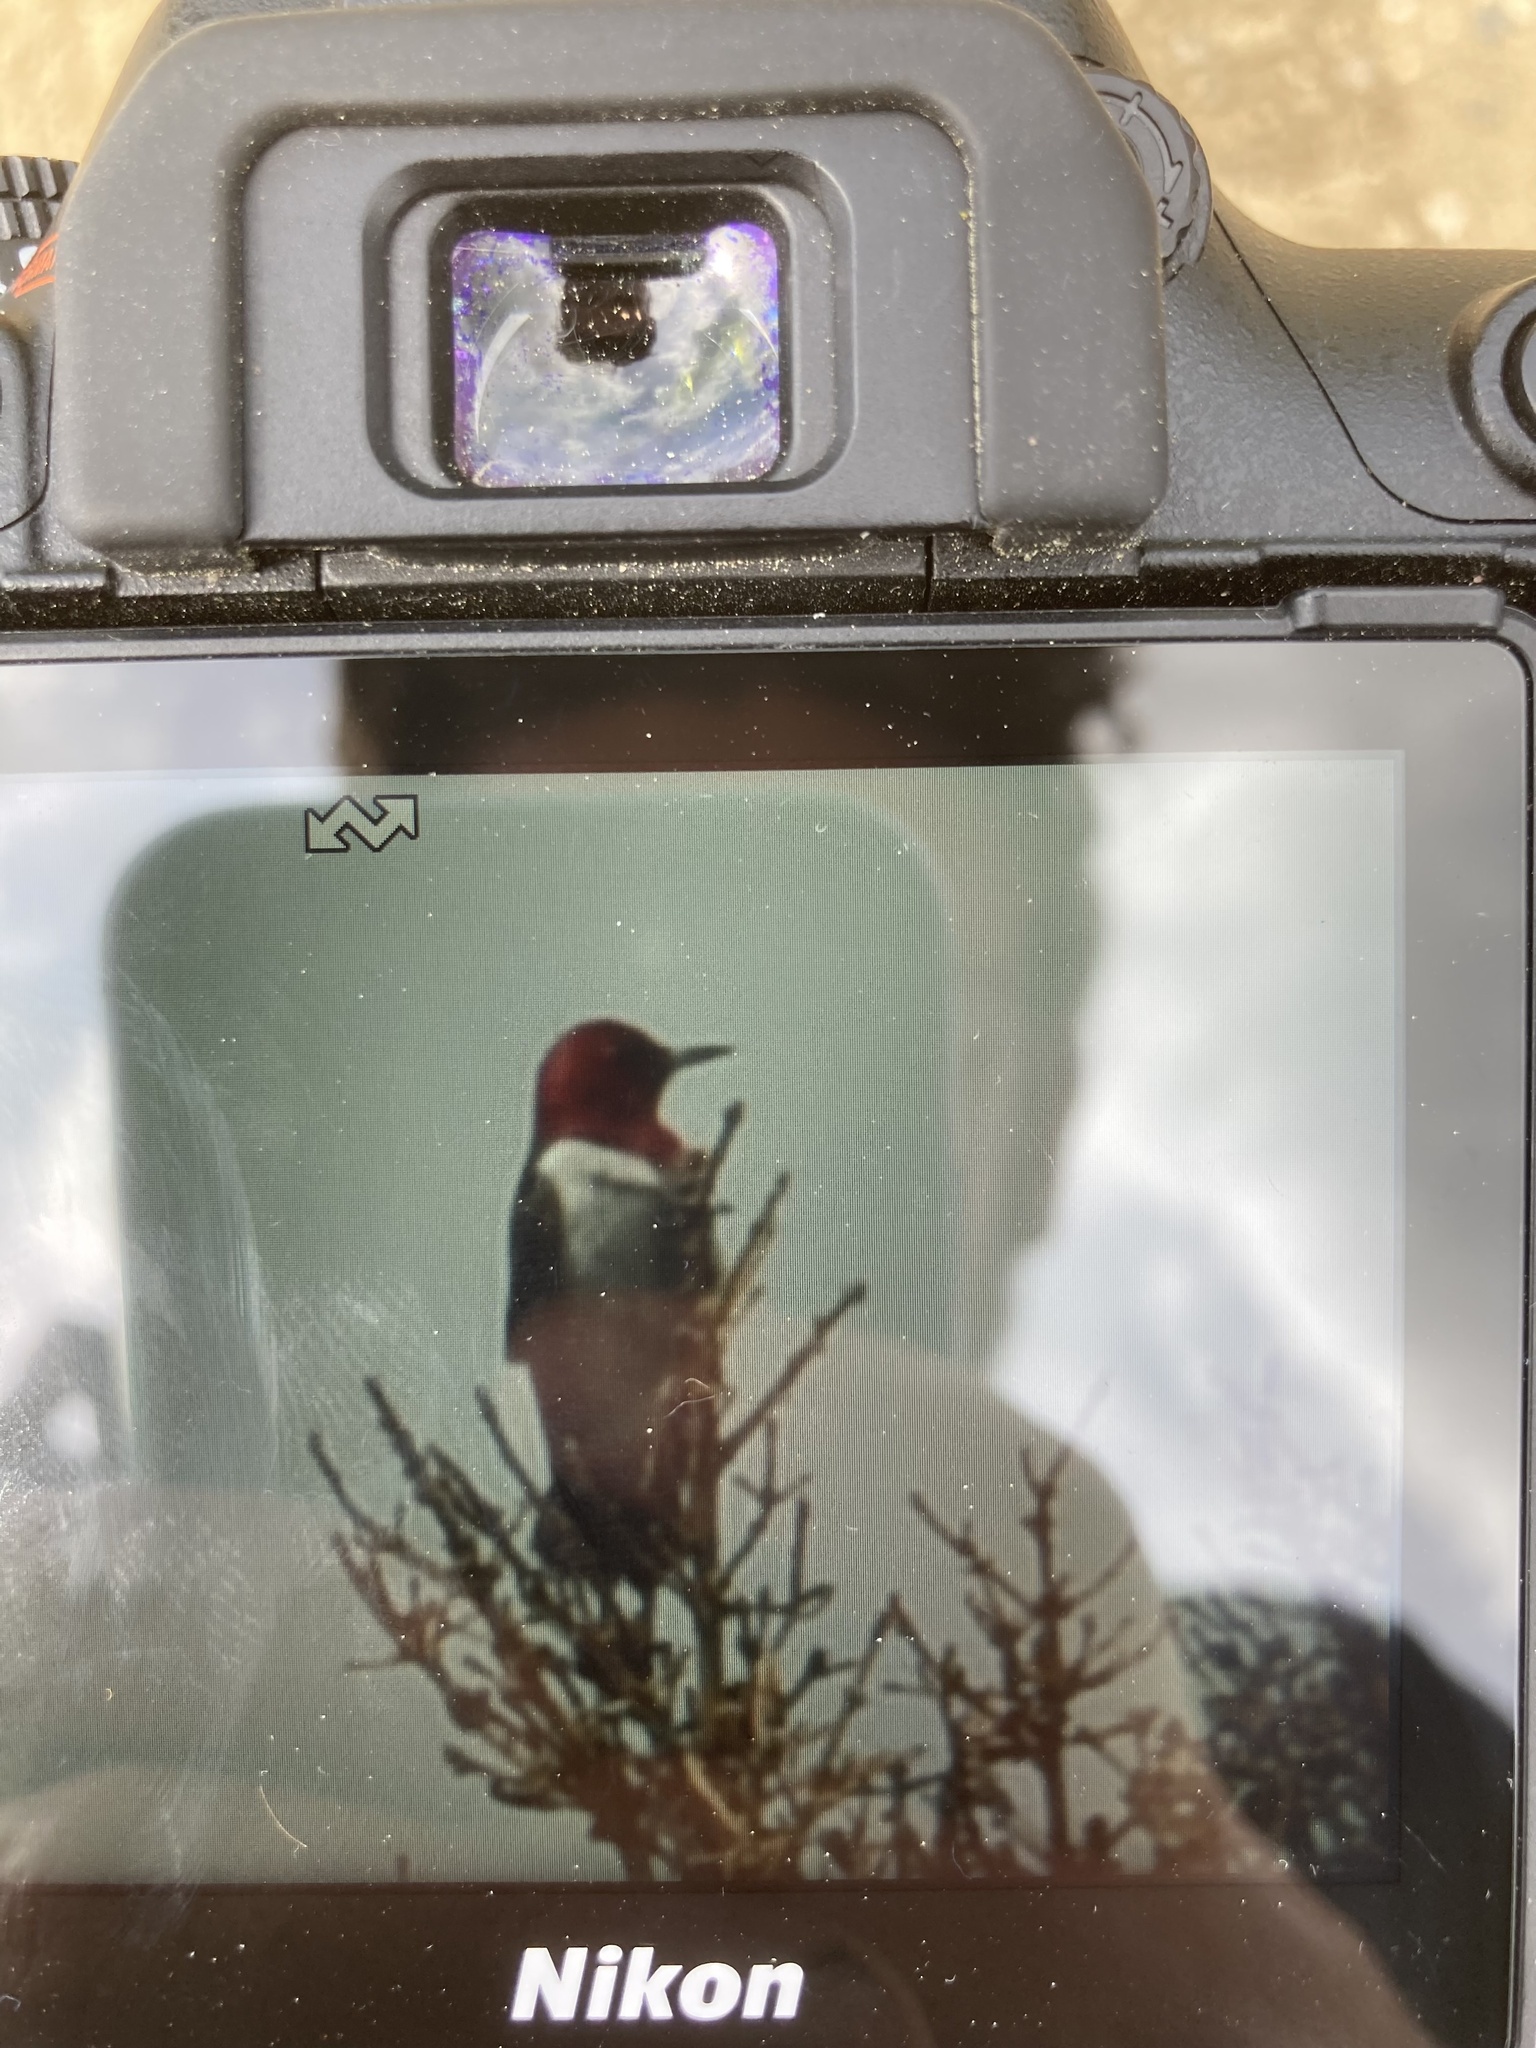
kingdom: Animalia
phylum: Chordata
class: Aves
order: Piciformes
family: Picidae
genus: Melanerpes
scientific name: Melanerpes erythrocephalus
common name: Red-headed woodpecker
